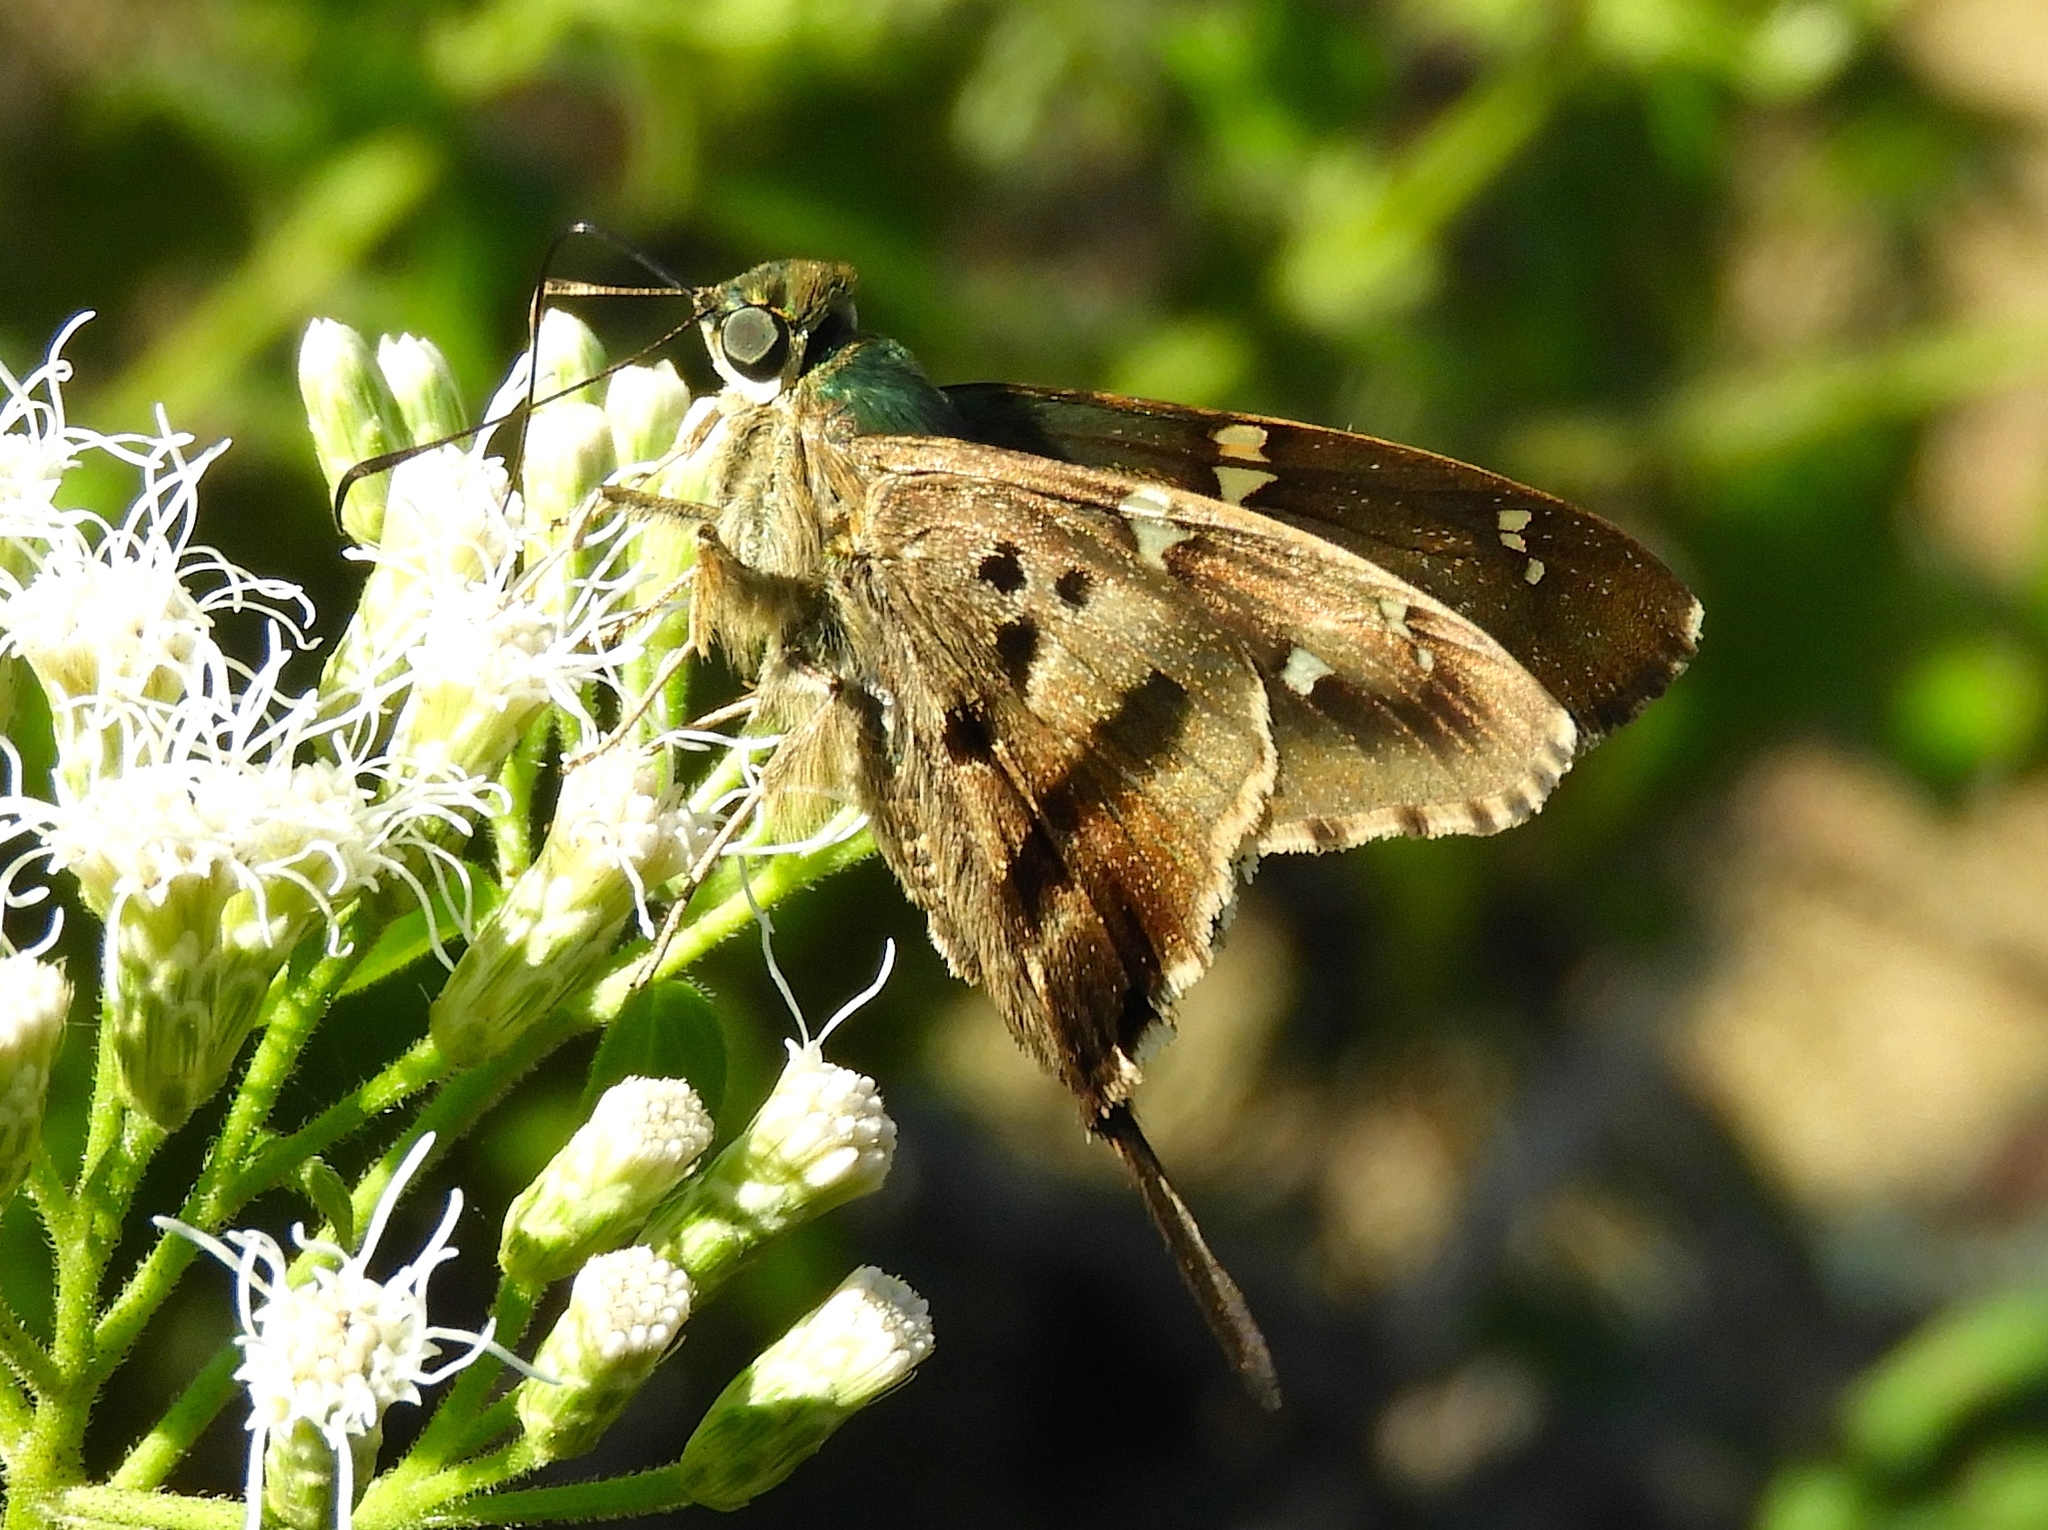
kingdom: Animalia
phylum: Arthropoda
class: Insecta
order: Lepidoptera
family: Hesperiidae
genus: Urbanus
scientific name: Urbanus proteus
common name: Long-tailed skipper
